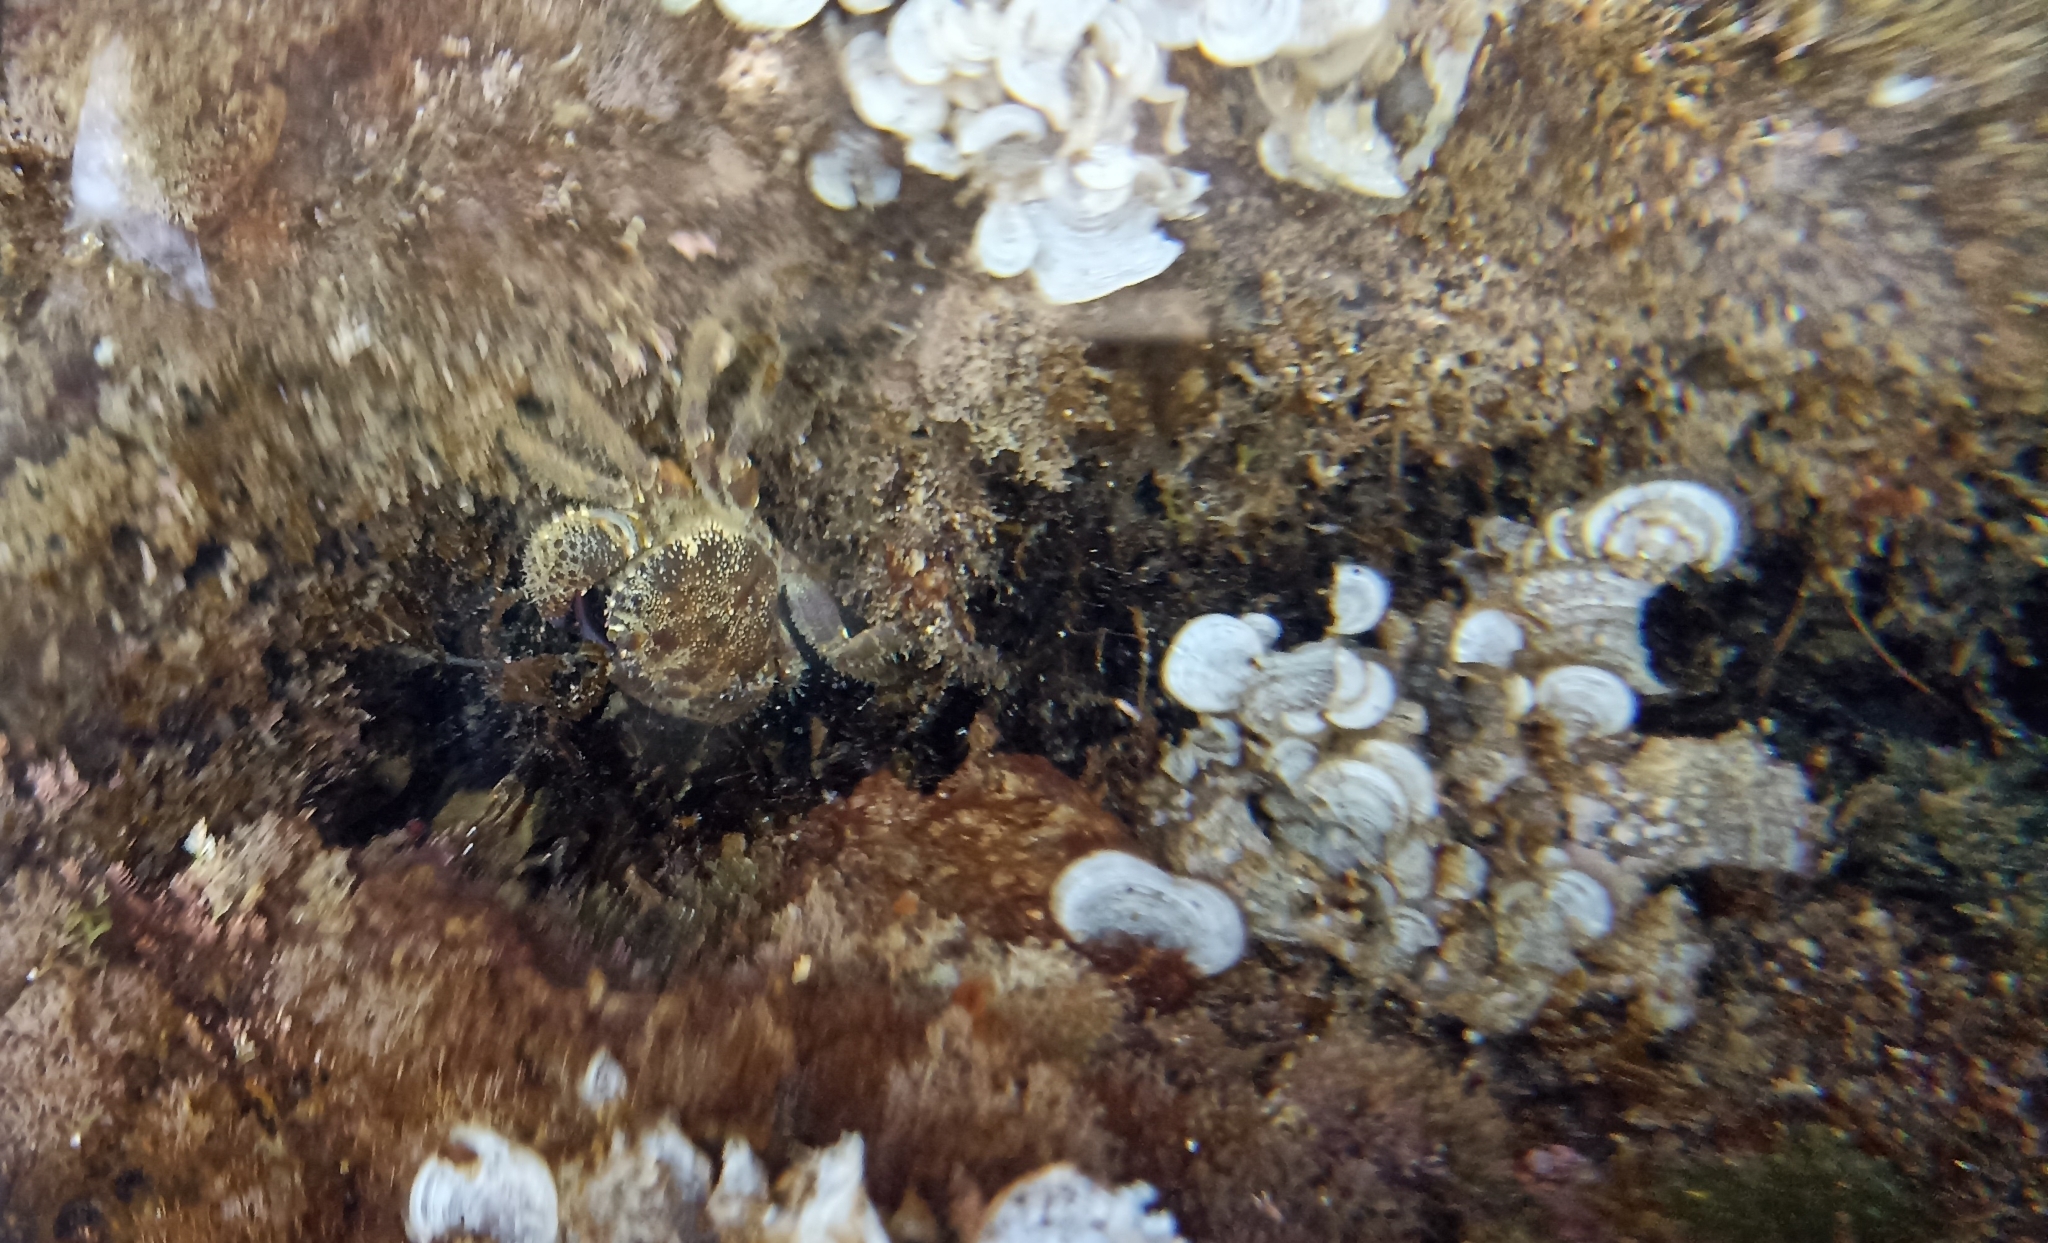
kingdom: Animalia
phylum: Arthropoda
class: Malacostraca
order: Decapoda
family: Eriphiidae
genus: Eriphia
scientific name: Eriphia verrucosa
